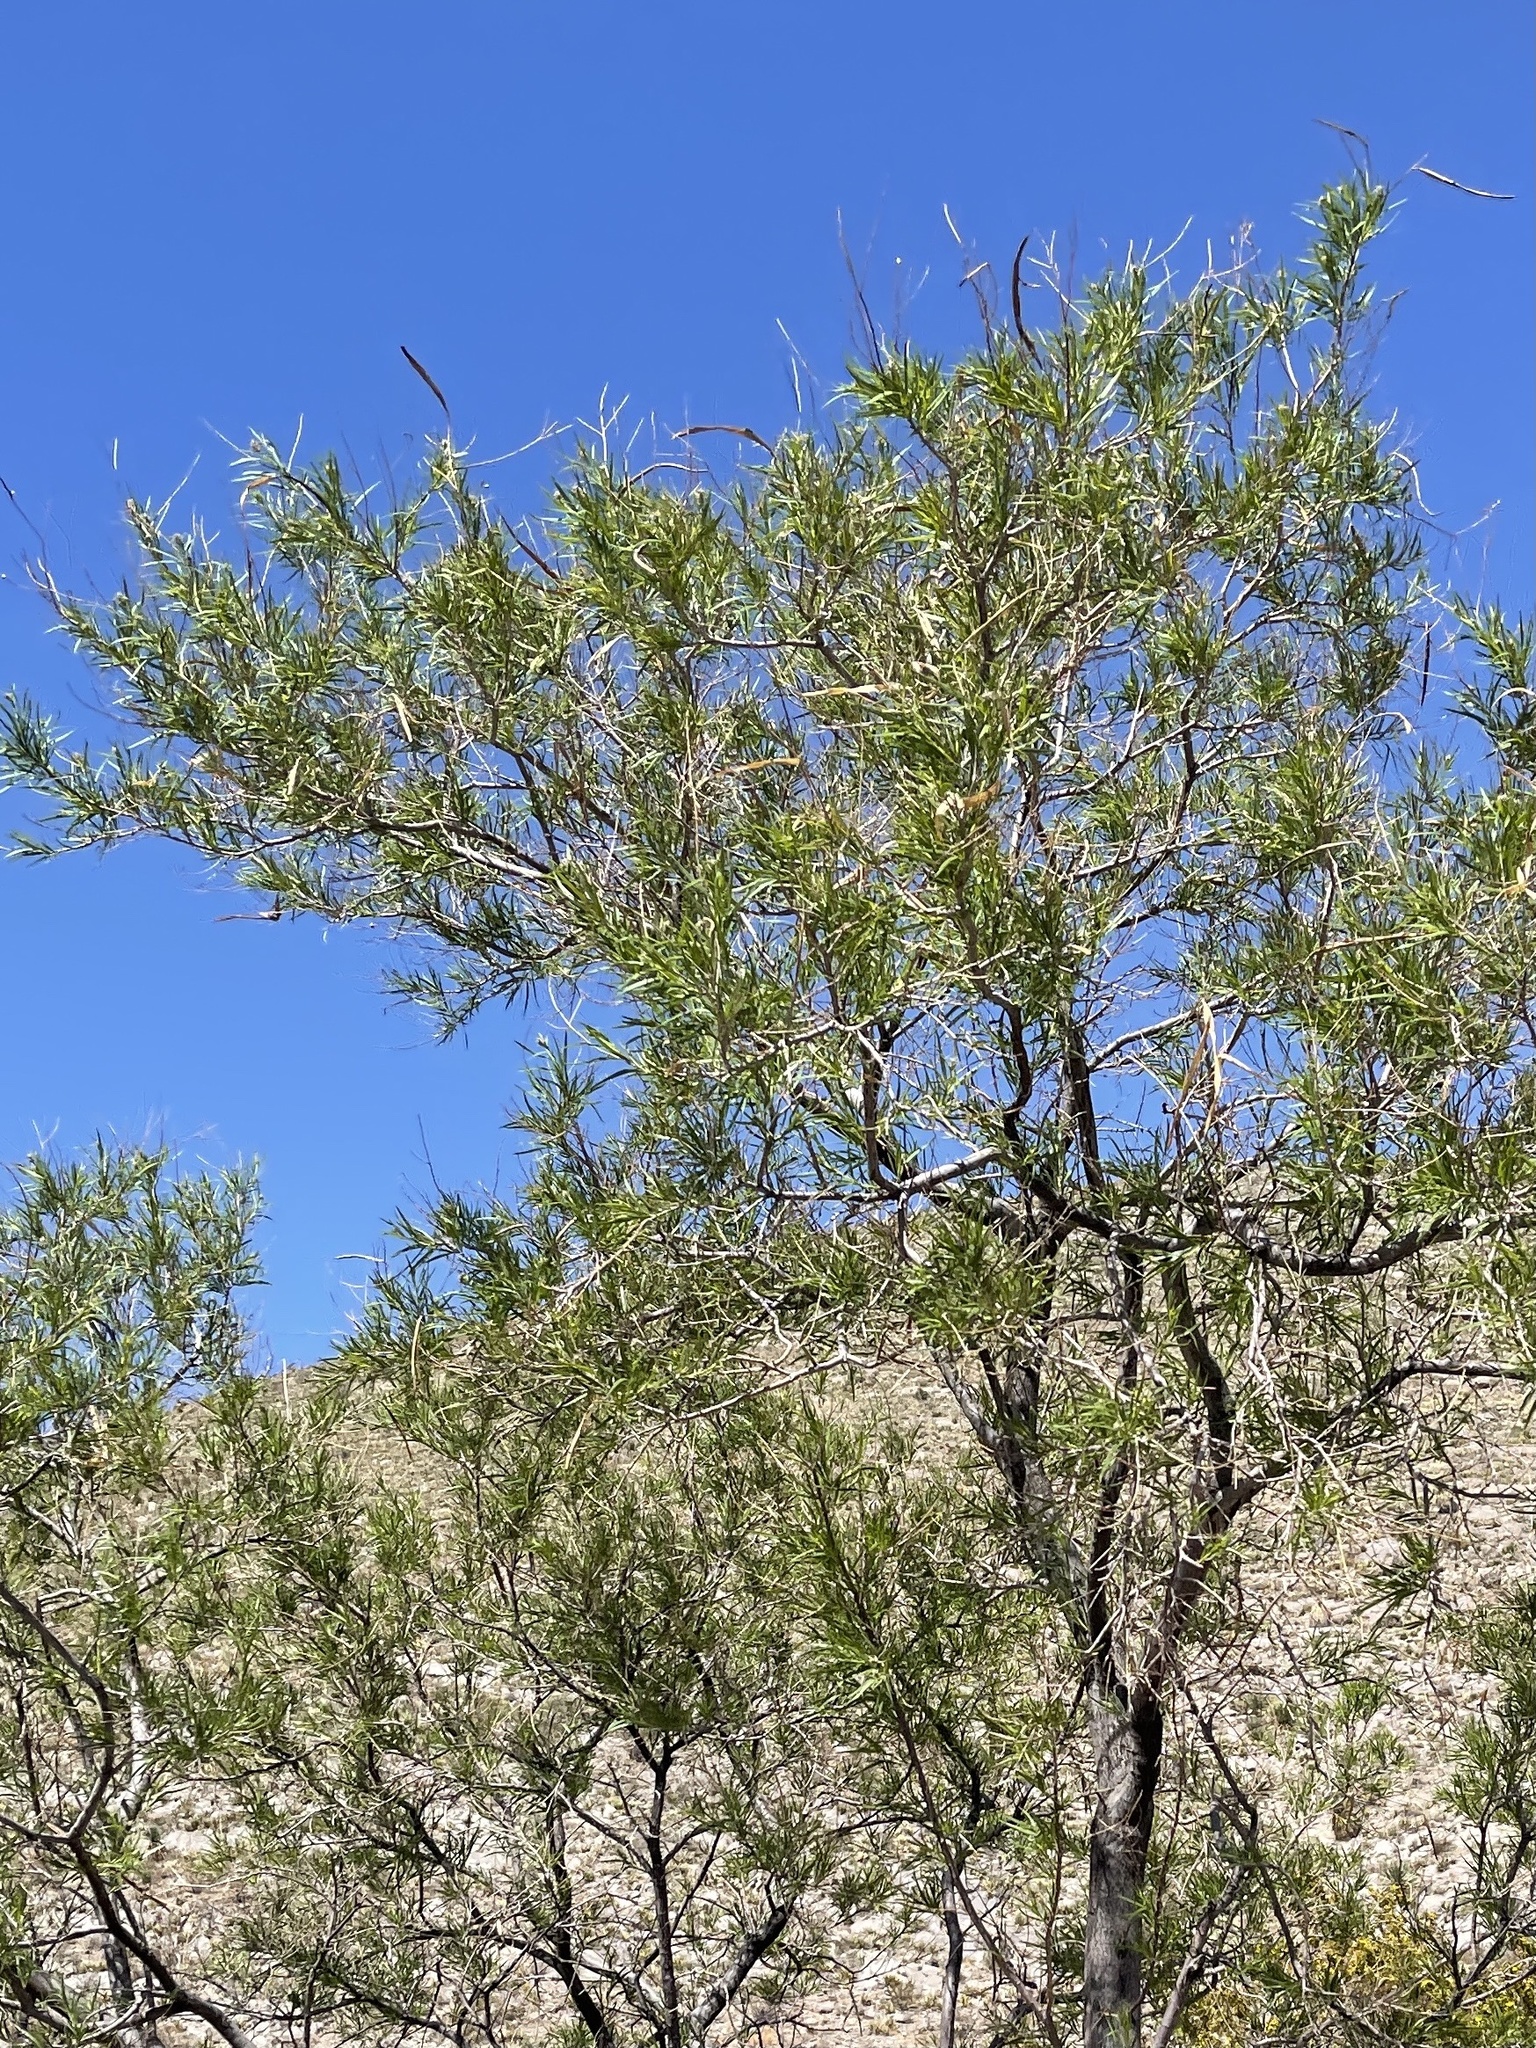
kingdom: Plantae
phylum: Tracheophyta
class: Magnoliopsida
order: Lamiales
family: Bignoniaceae
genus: Chilopsis
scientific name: Chilopsis linearis
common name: Desert-willow
